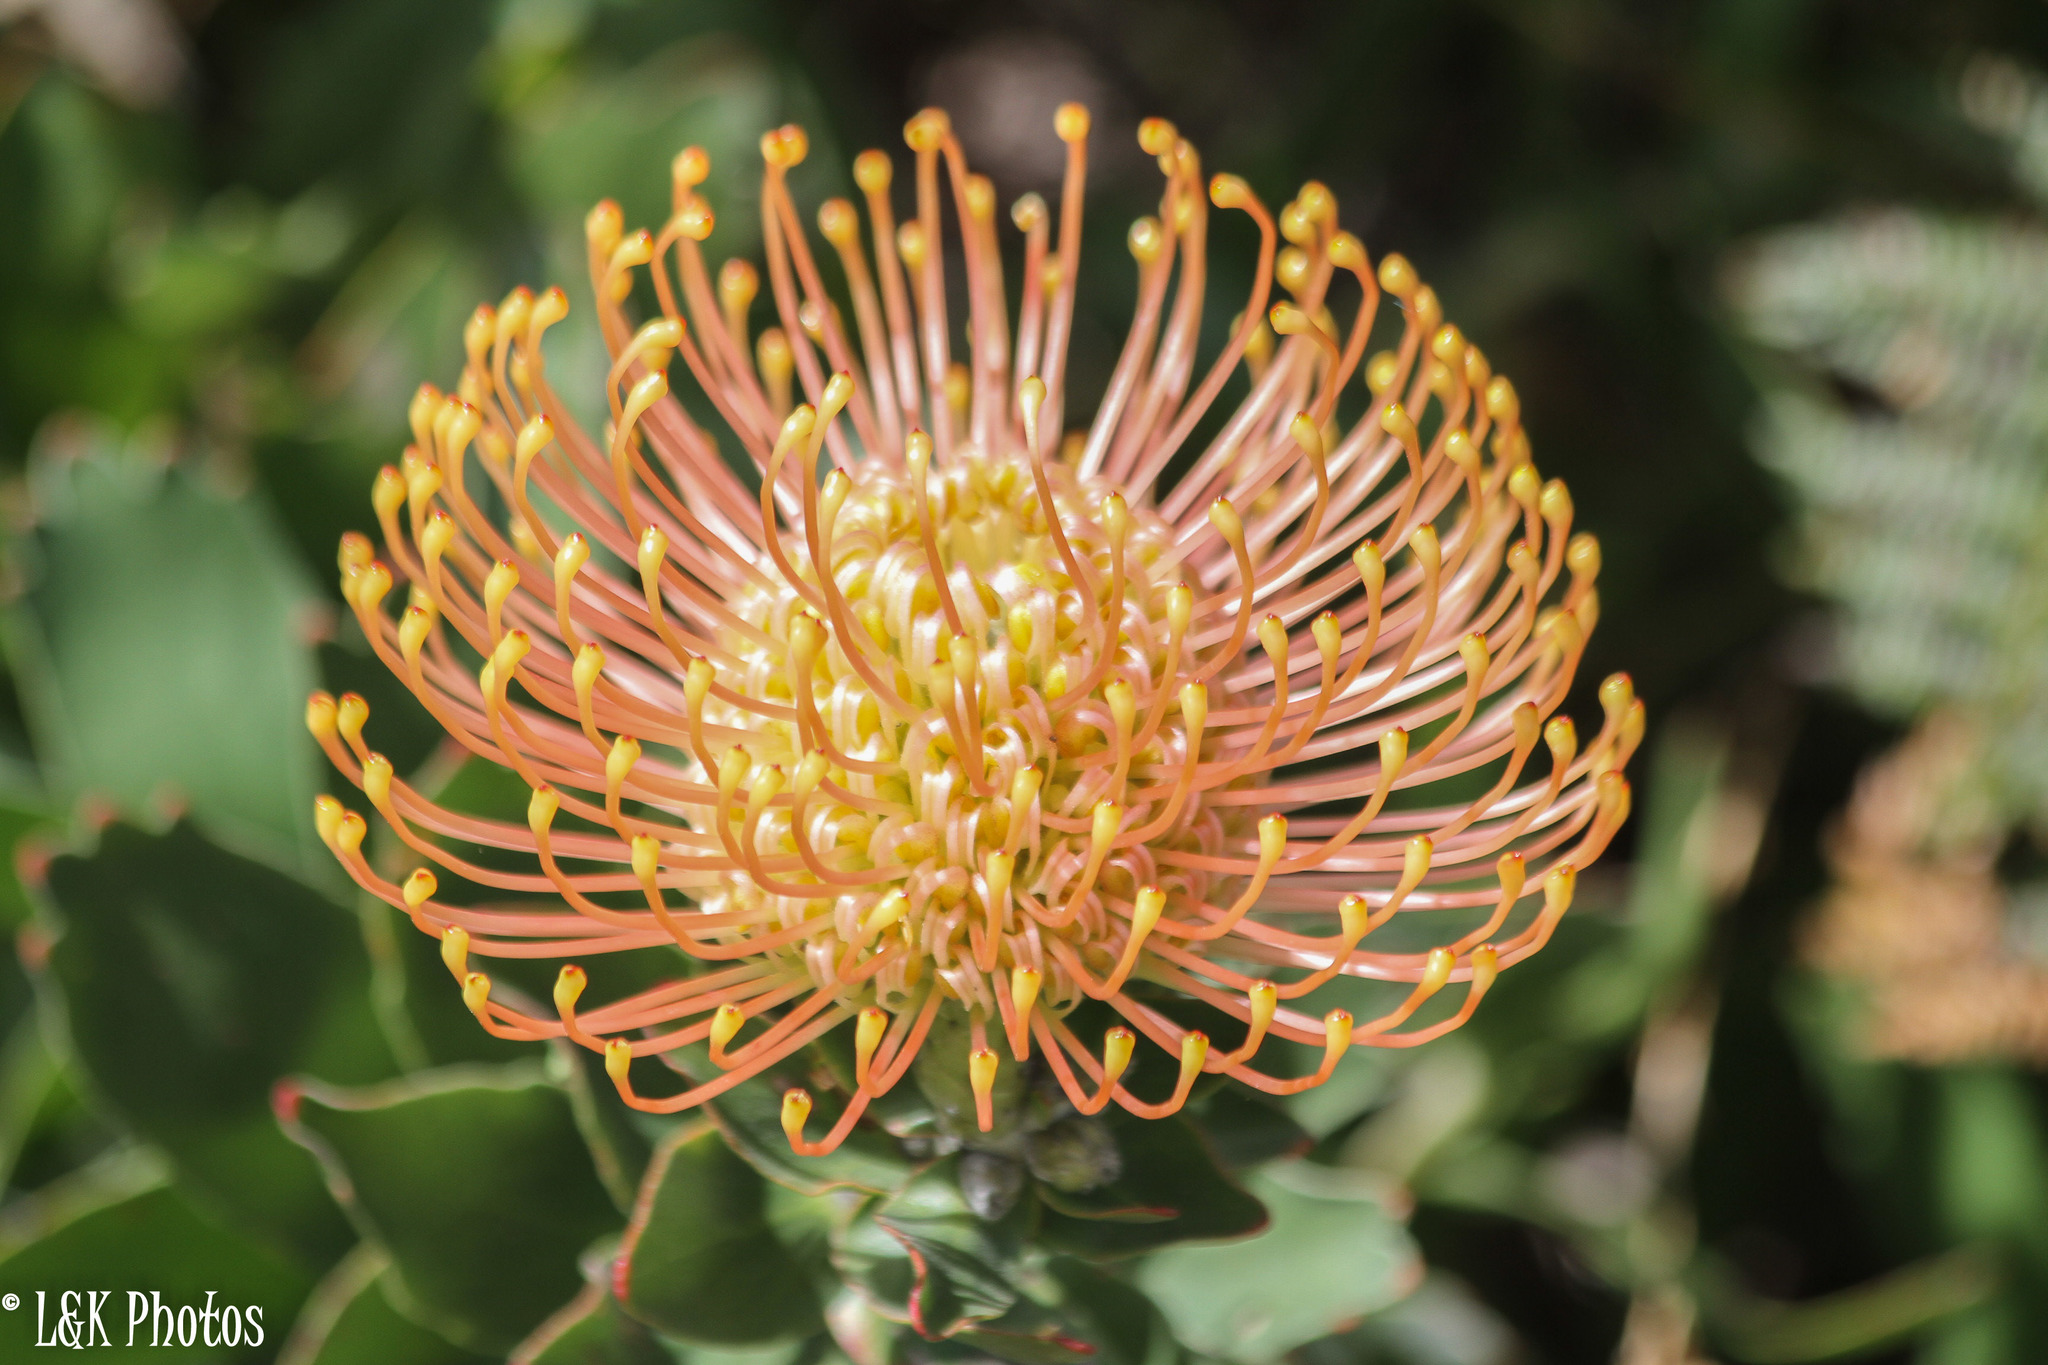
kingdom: Plantae
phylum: Tracheophyta
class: Magnoliopsida
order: Proteales
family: Proteaceae
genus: Leucospermum
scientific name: Leucospermum cordifolium
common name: Red pincushion-protea
